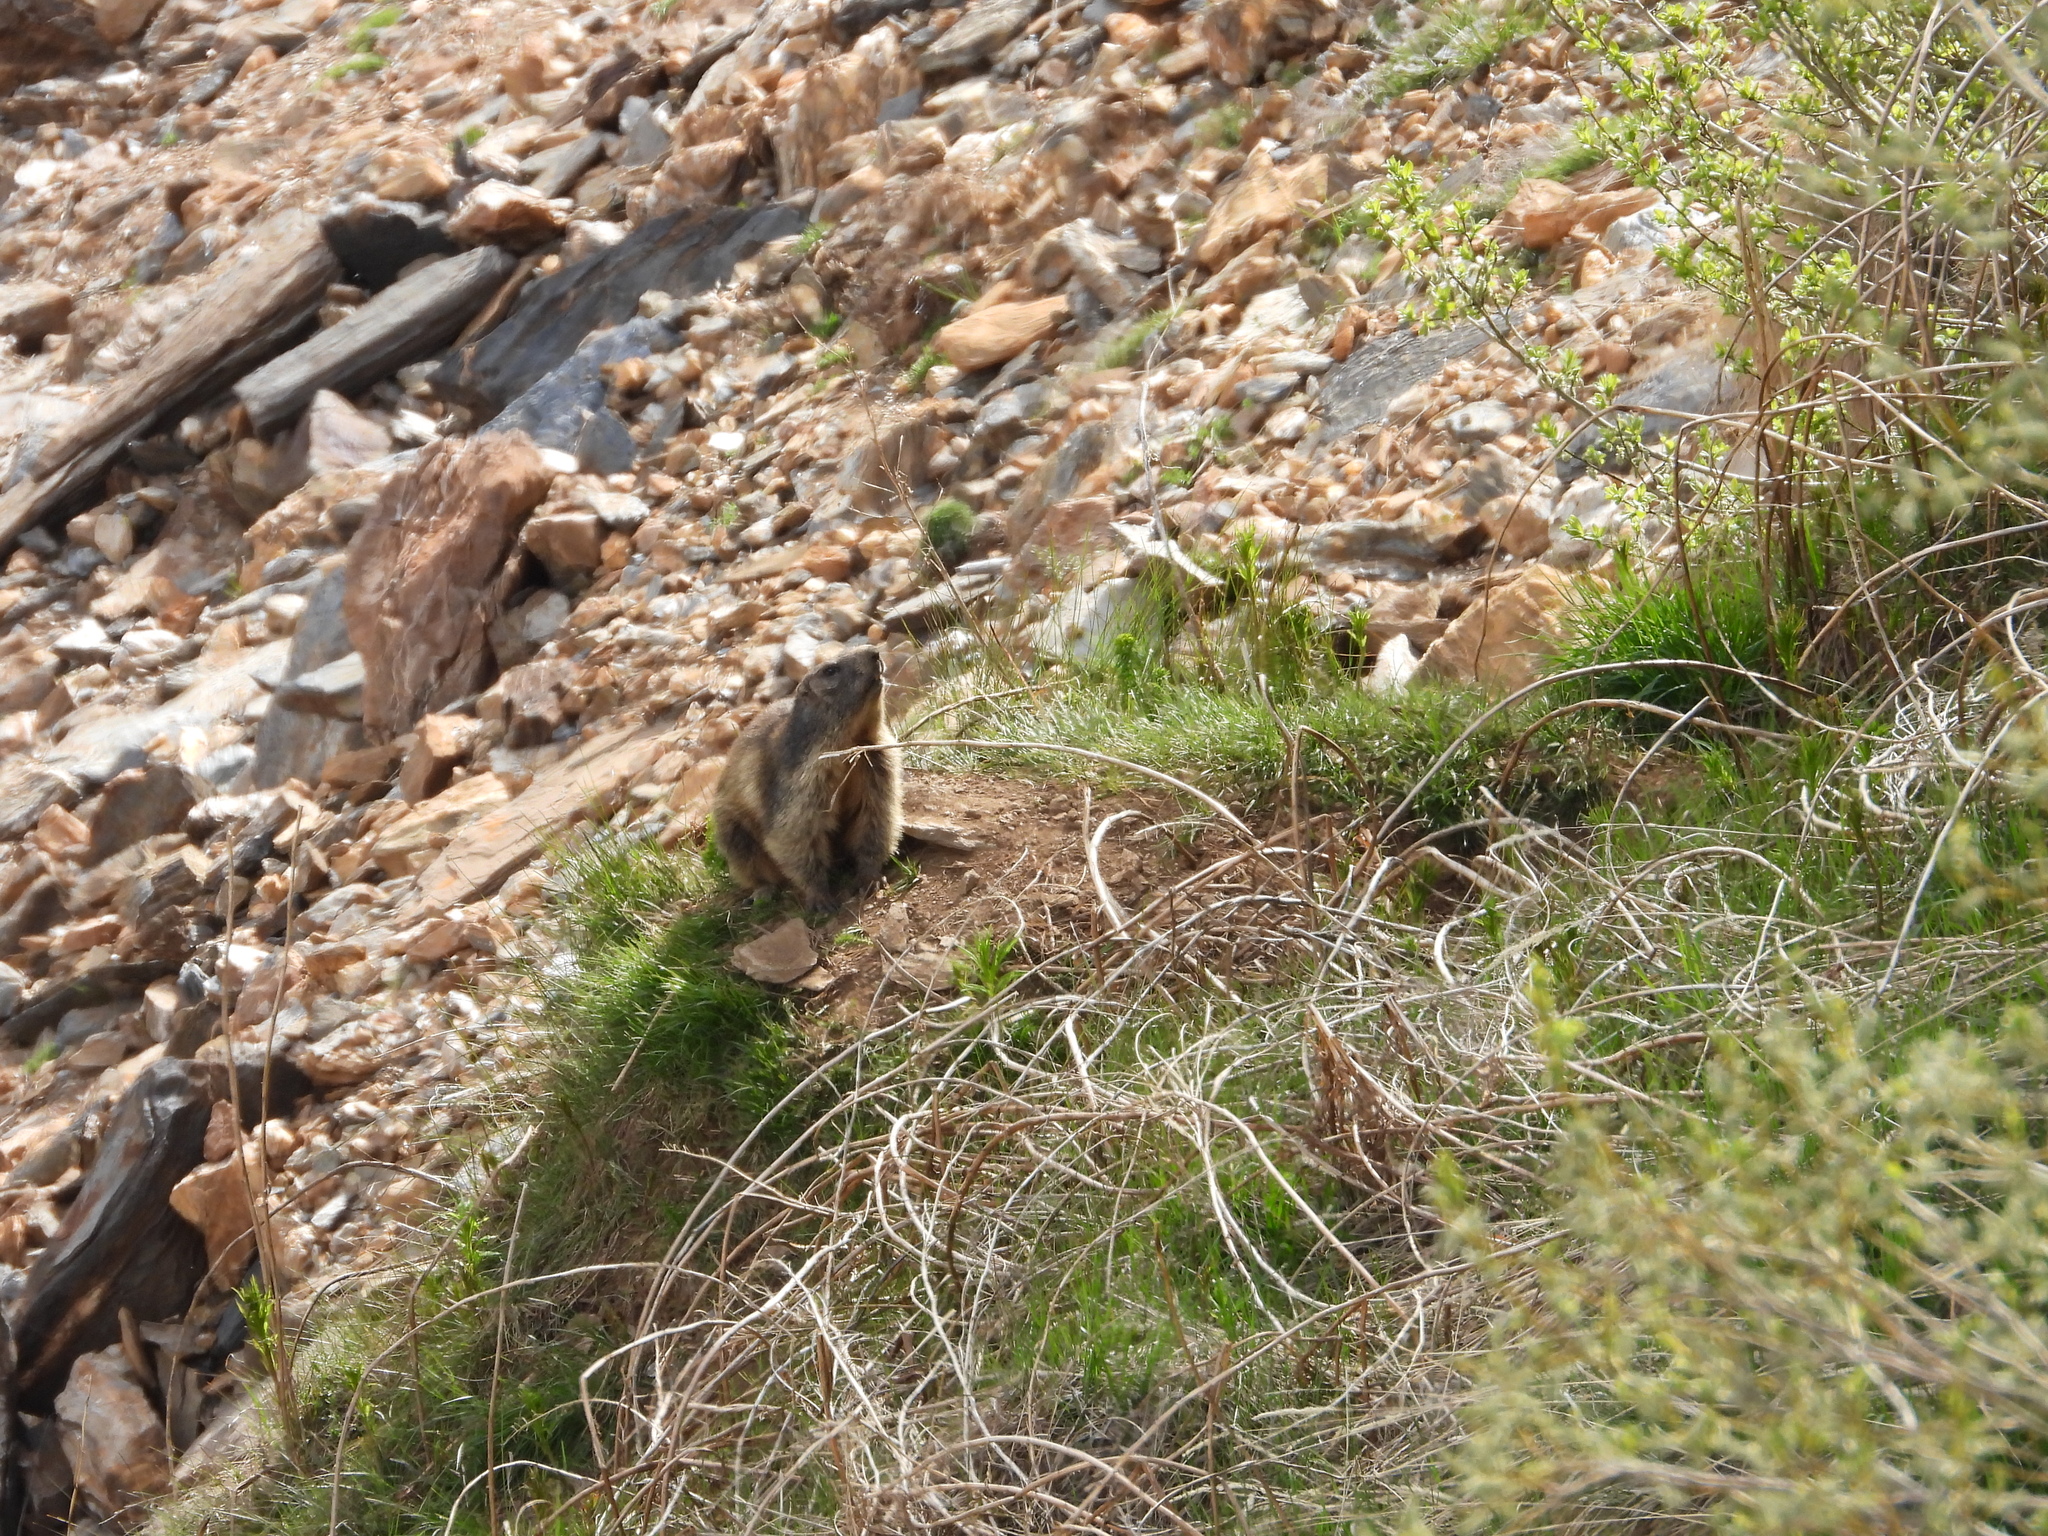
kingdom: Animalia
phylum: Chordata
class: Mammalia
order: Rodentia
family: Sciuridae
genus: Marmota
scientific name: Marmota marmota
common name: Alpine marmot
